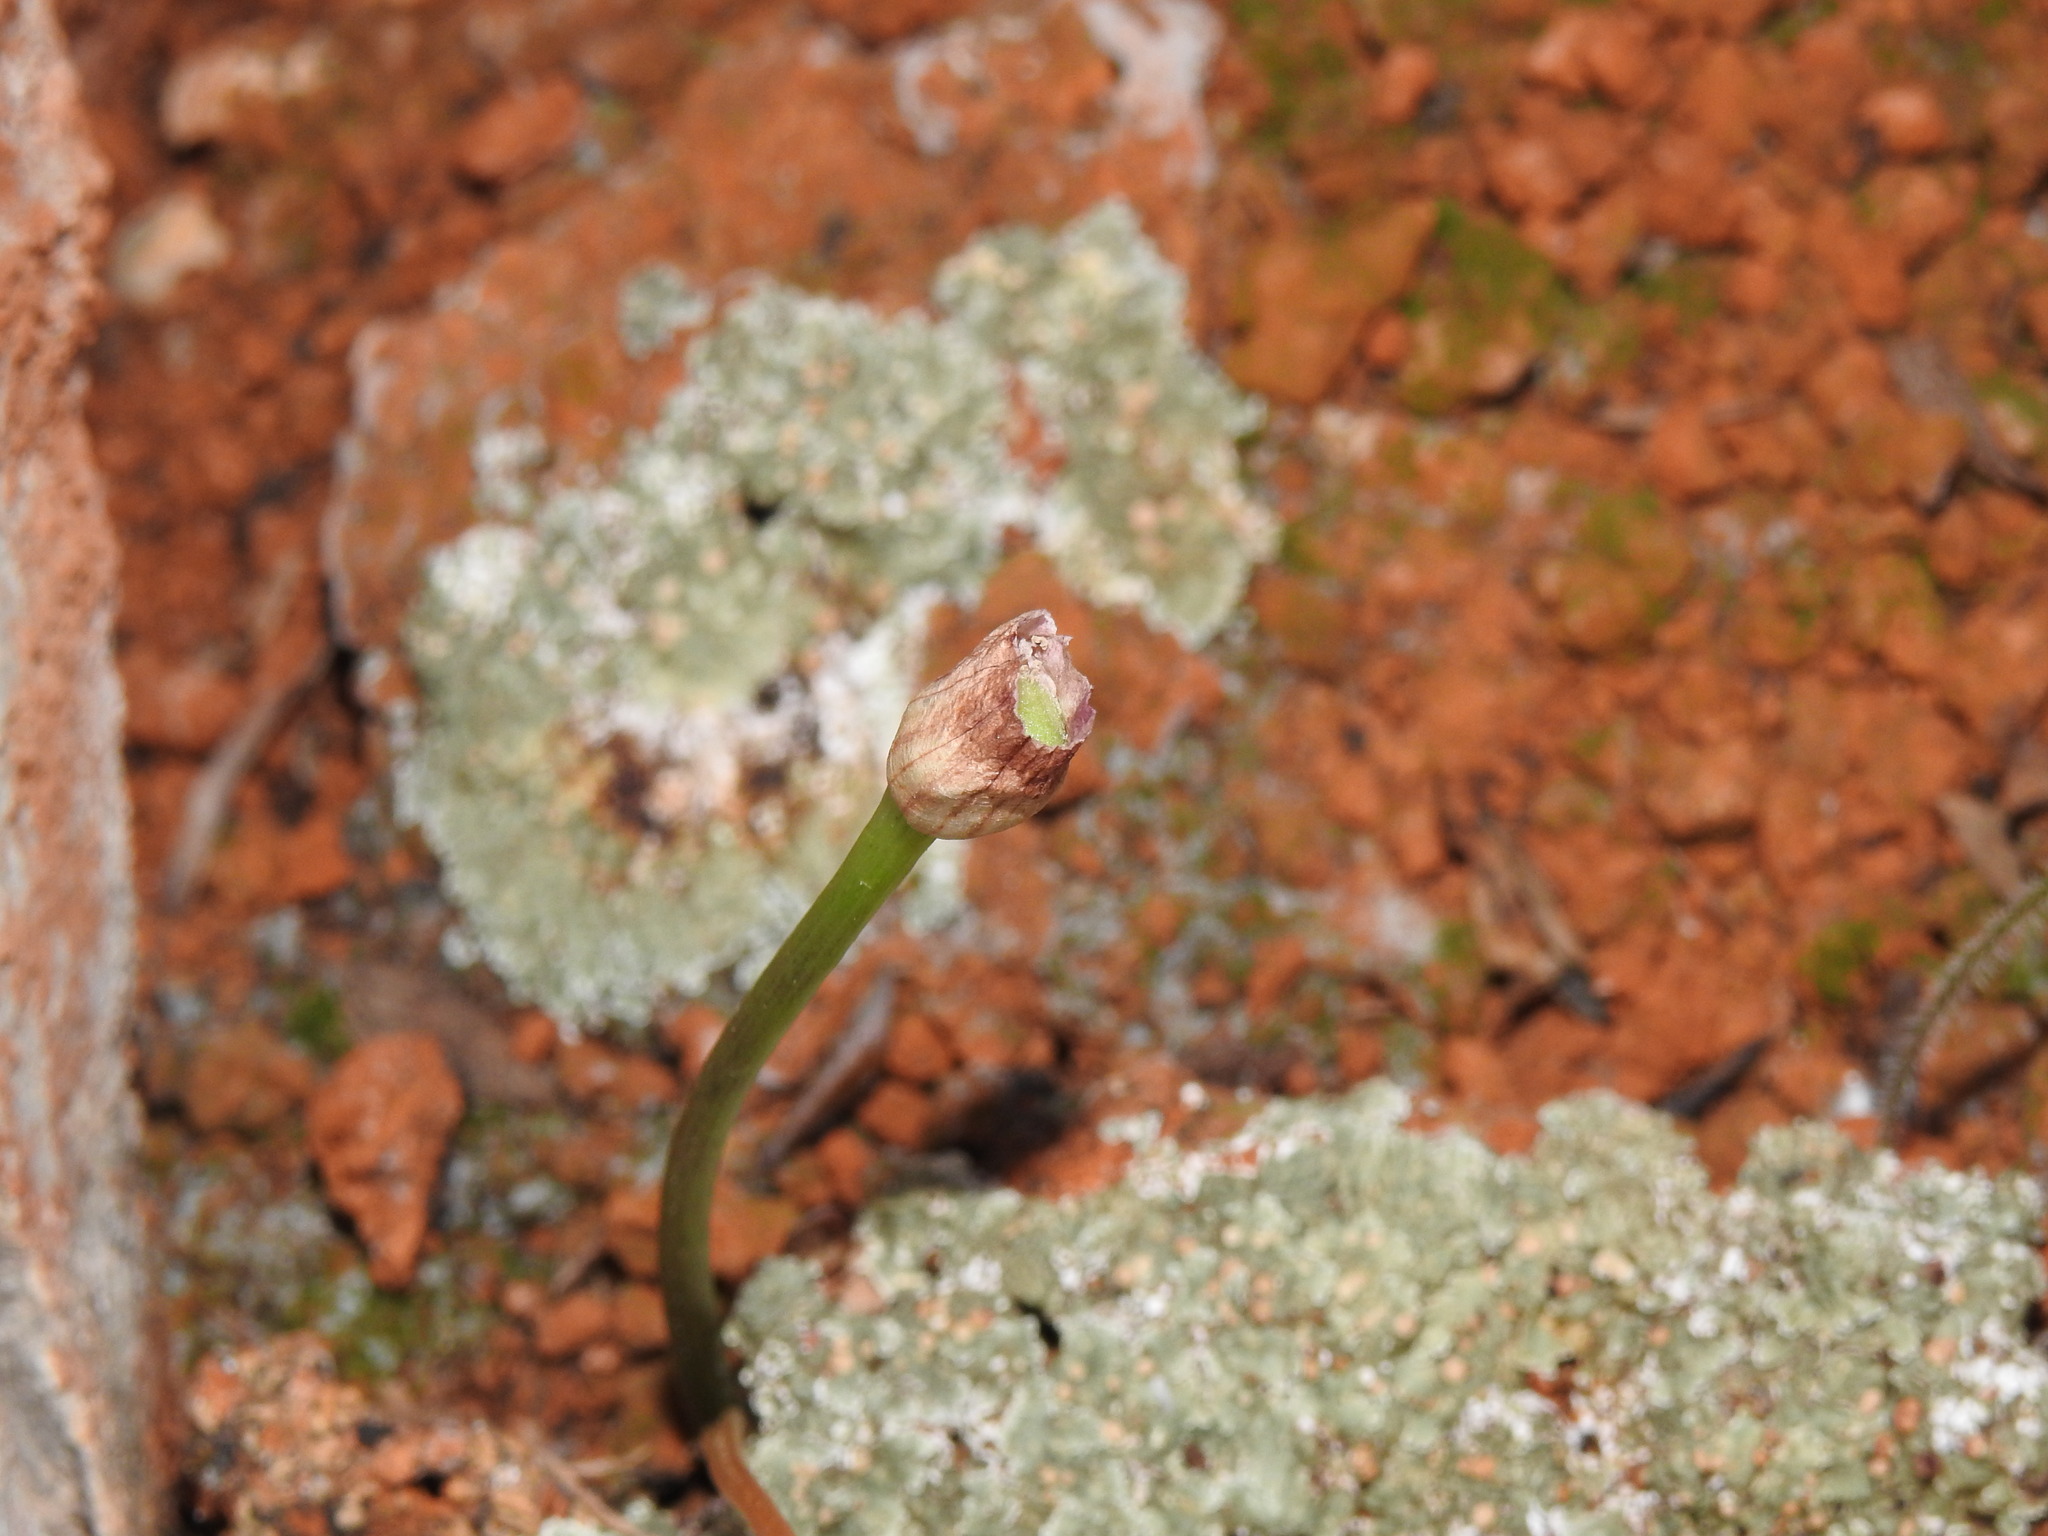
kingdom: Plantae
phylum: Tracheophyta
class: Liliopsida
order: Alismatales
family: Araceae
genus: Arisarum
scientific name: Arisarum simorrhinum
